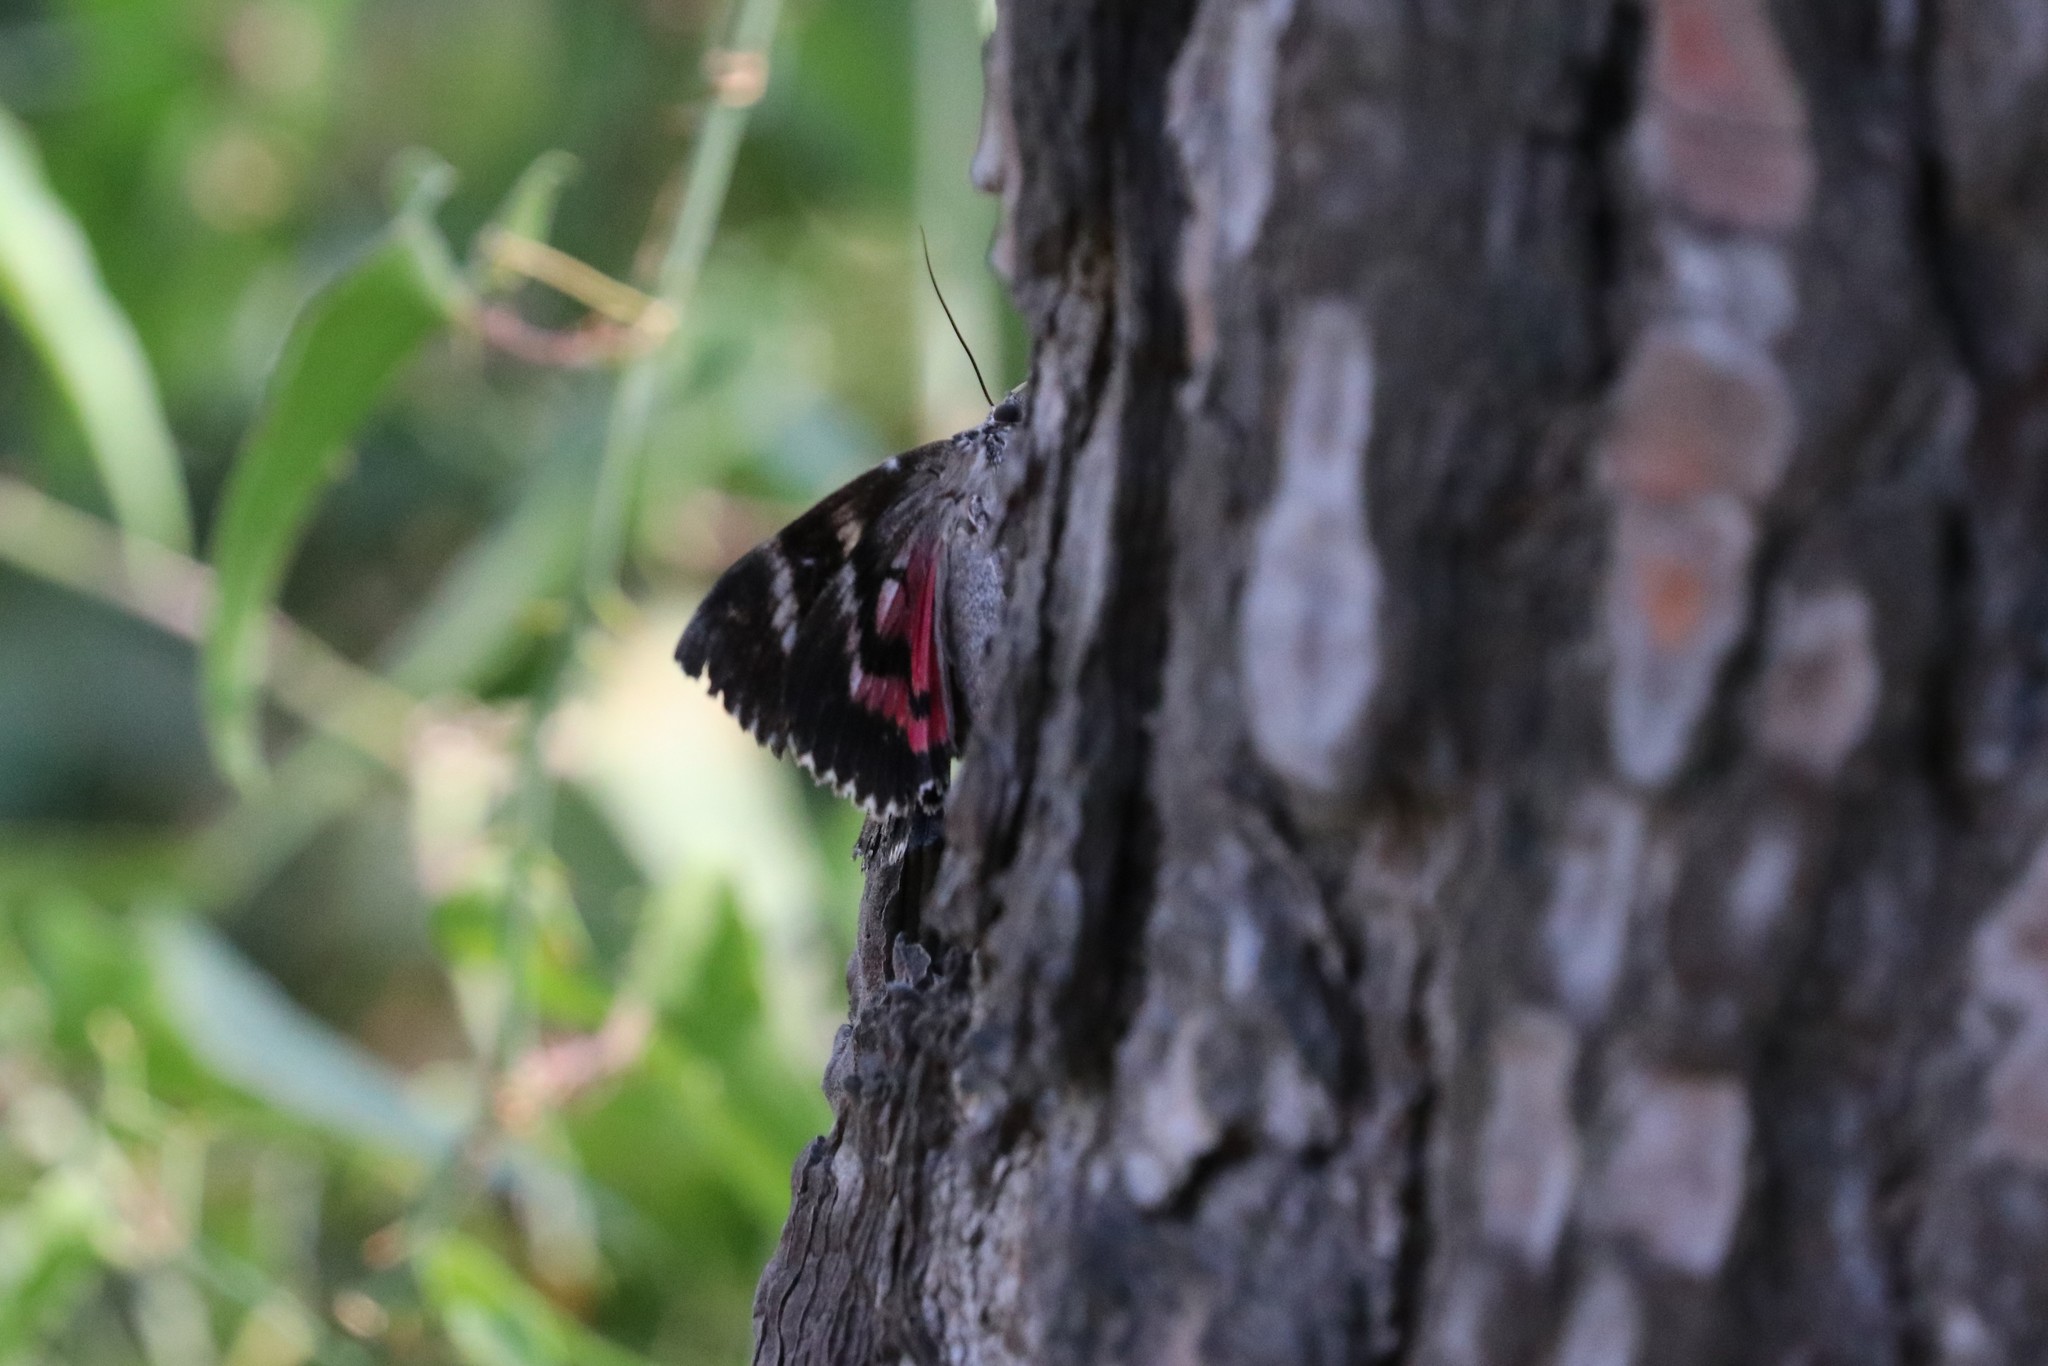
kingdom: Animalia
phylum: Arthropoda
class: Insecta
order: Lepidoptera
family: Erebidae
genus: Catocala
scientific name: Catocala
